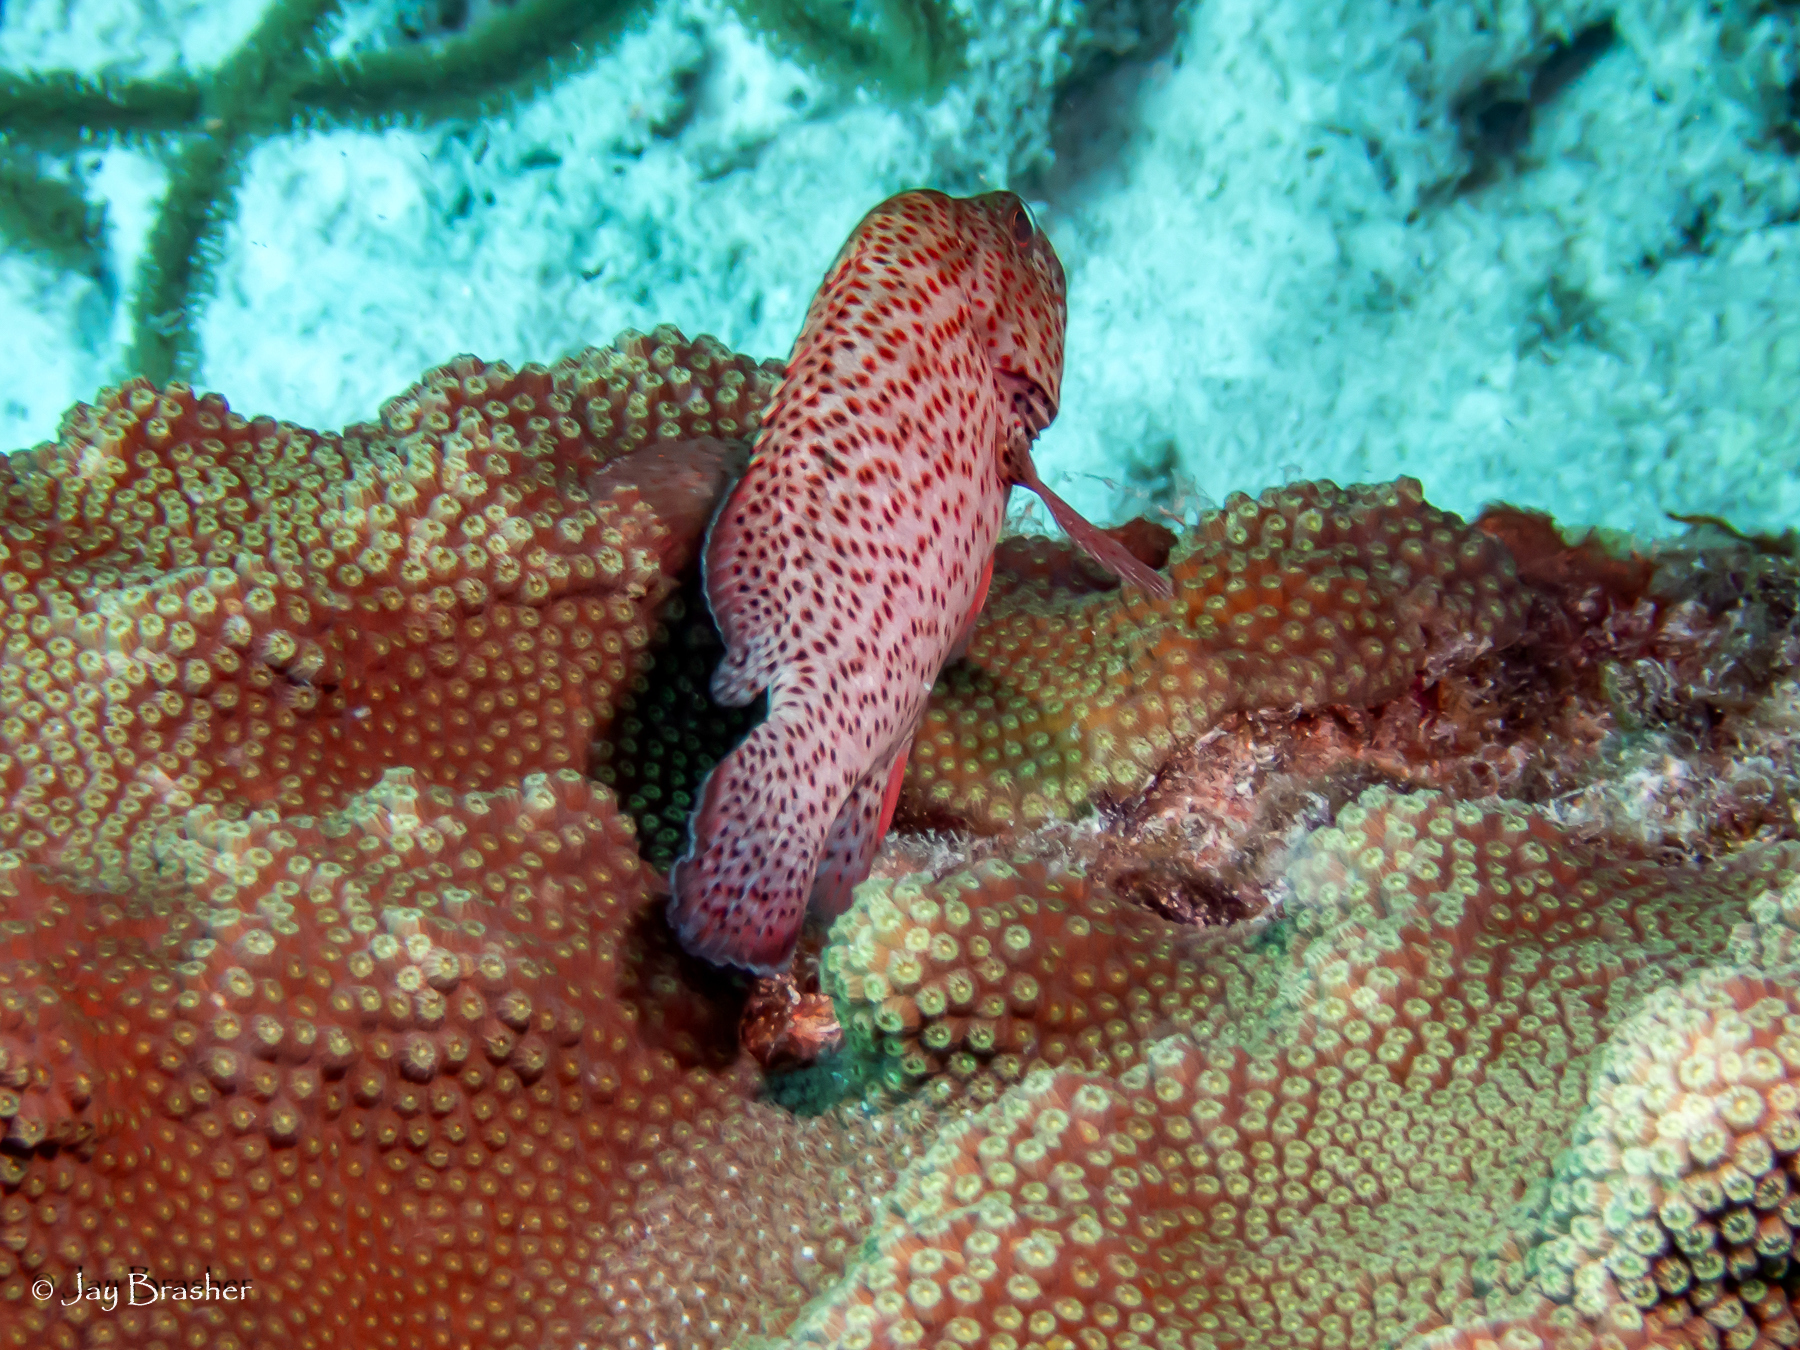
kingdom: Animalia
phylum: Chordata
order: Perciformes
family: Serranidae
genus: Cephalopholis
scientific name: Cephalopholis cruentata
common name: Graysby
